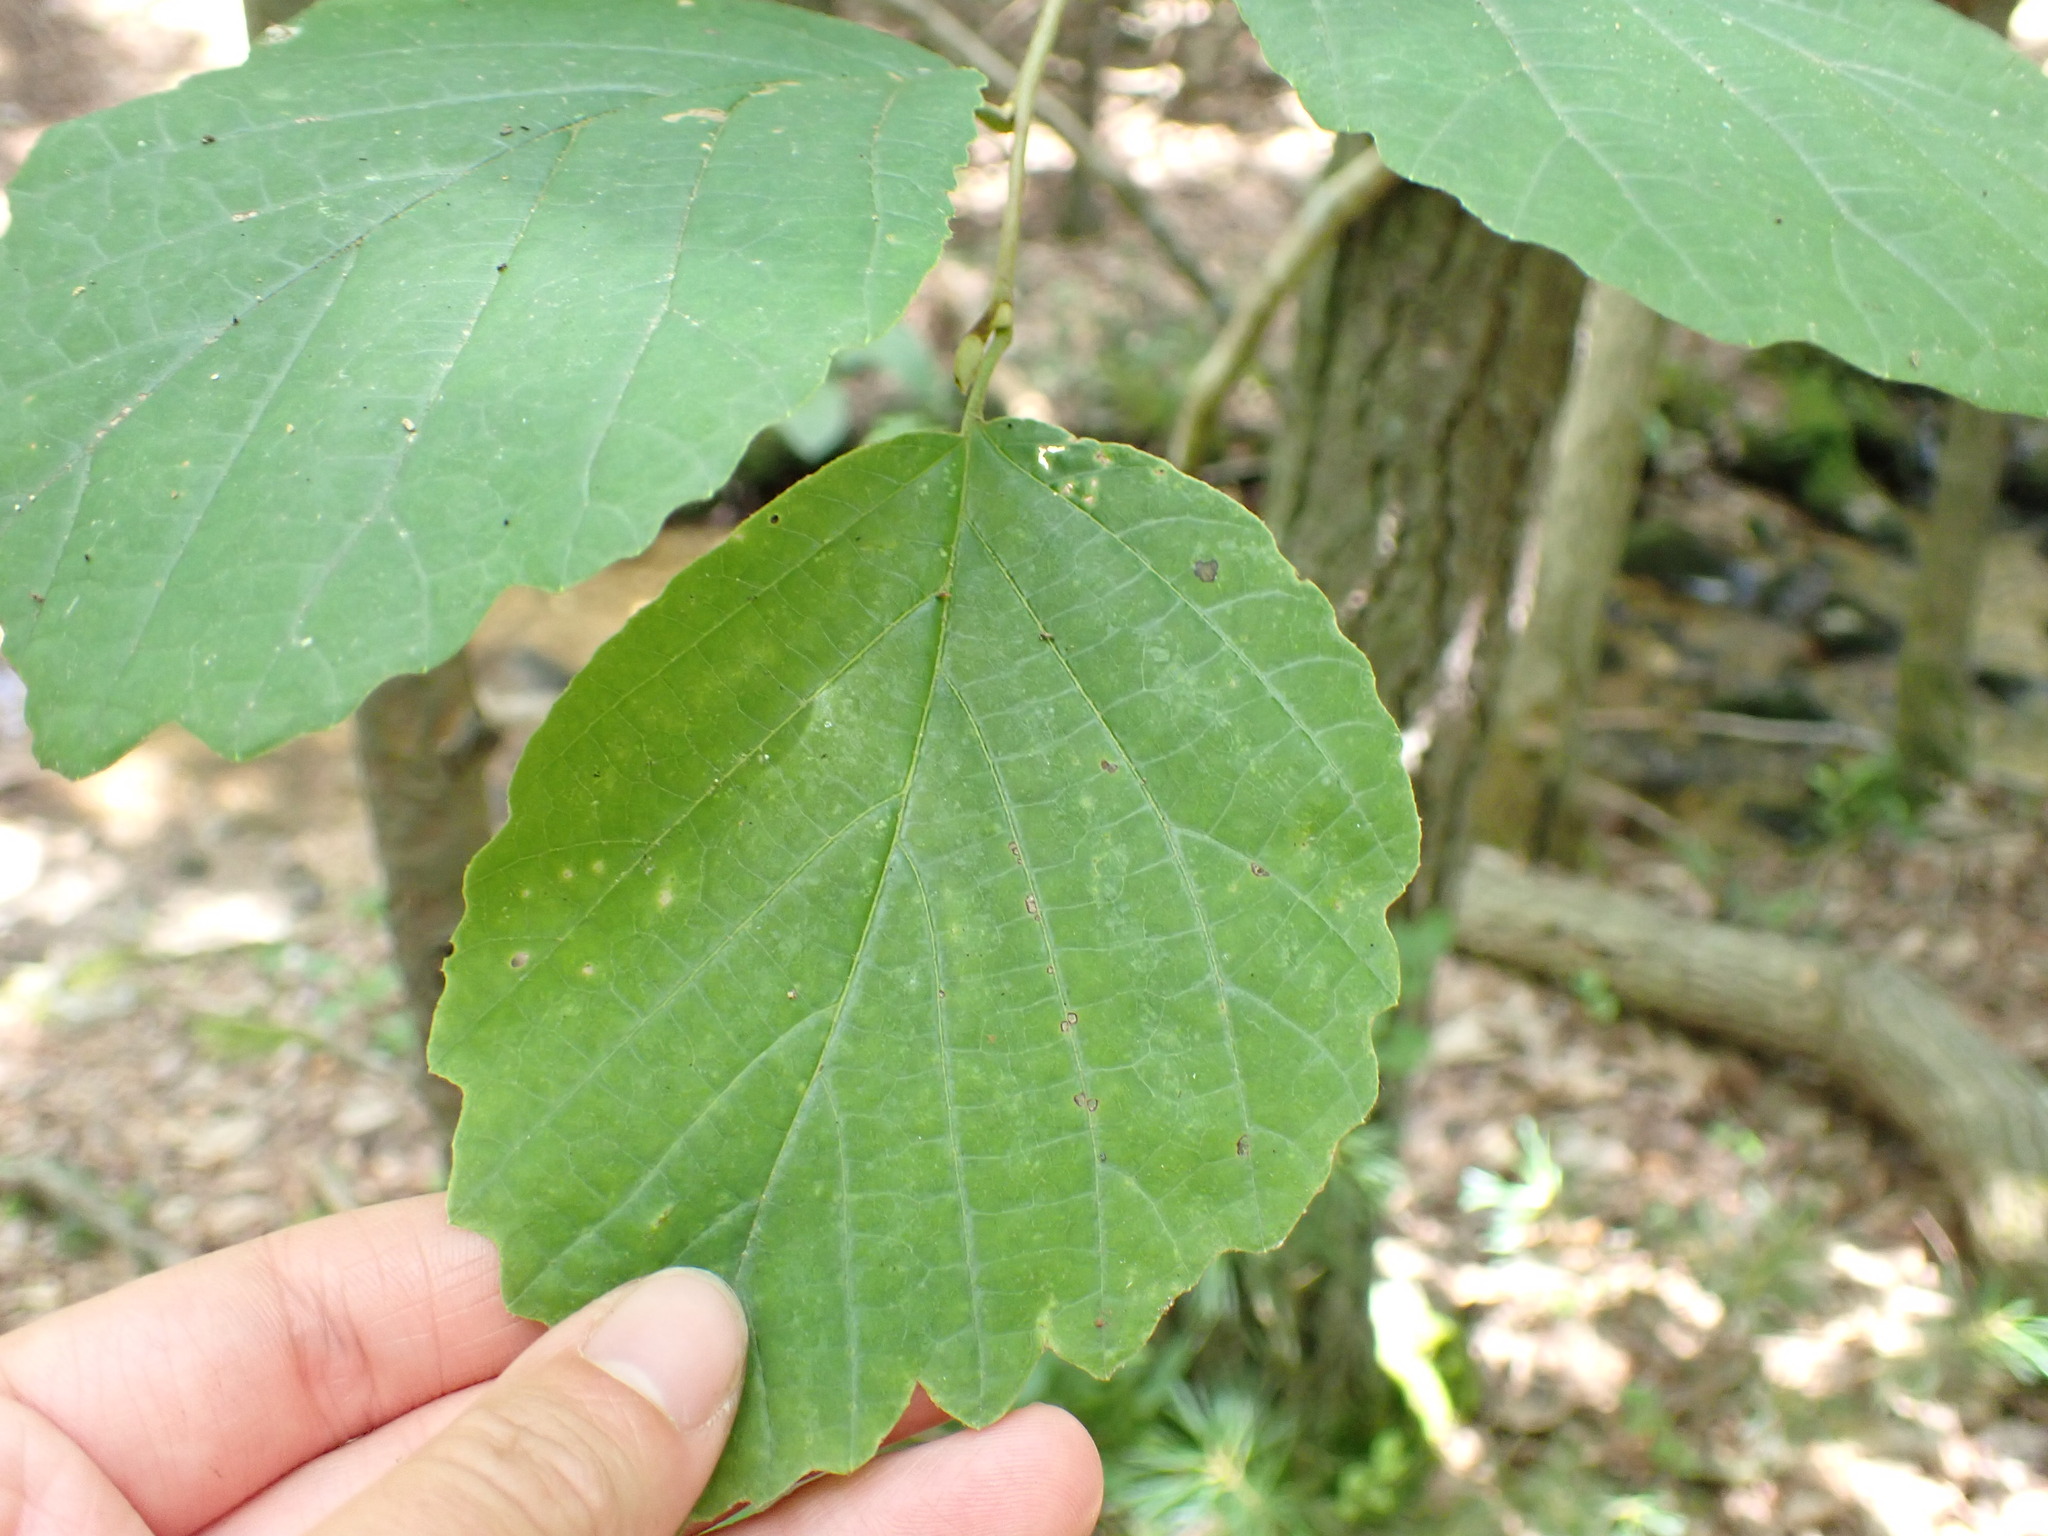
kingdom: Plantae
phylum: Tracheophyta
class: Magnoliopsida
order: Saxifragales
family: Hamamelidaceae
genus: Hamamelis
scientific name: Hamamelis virginiana
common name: Witch-hazel
